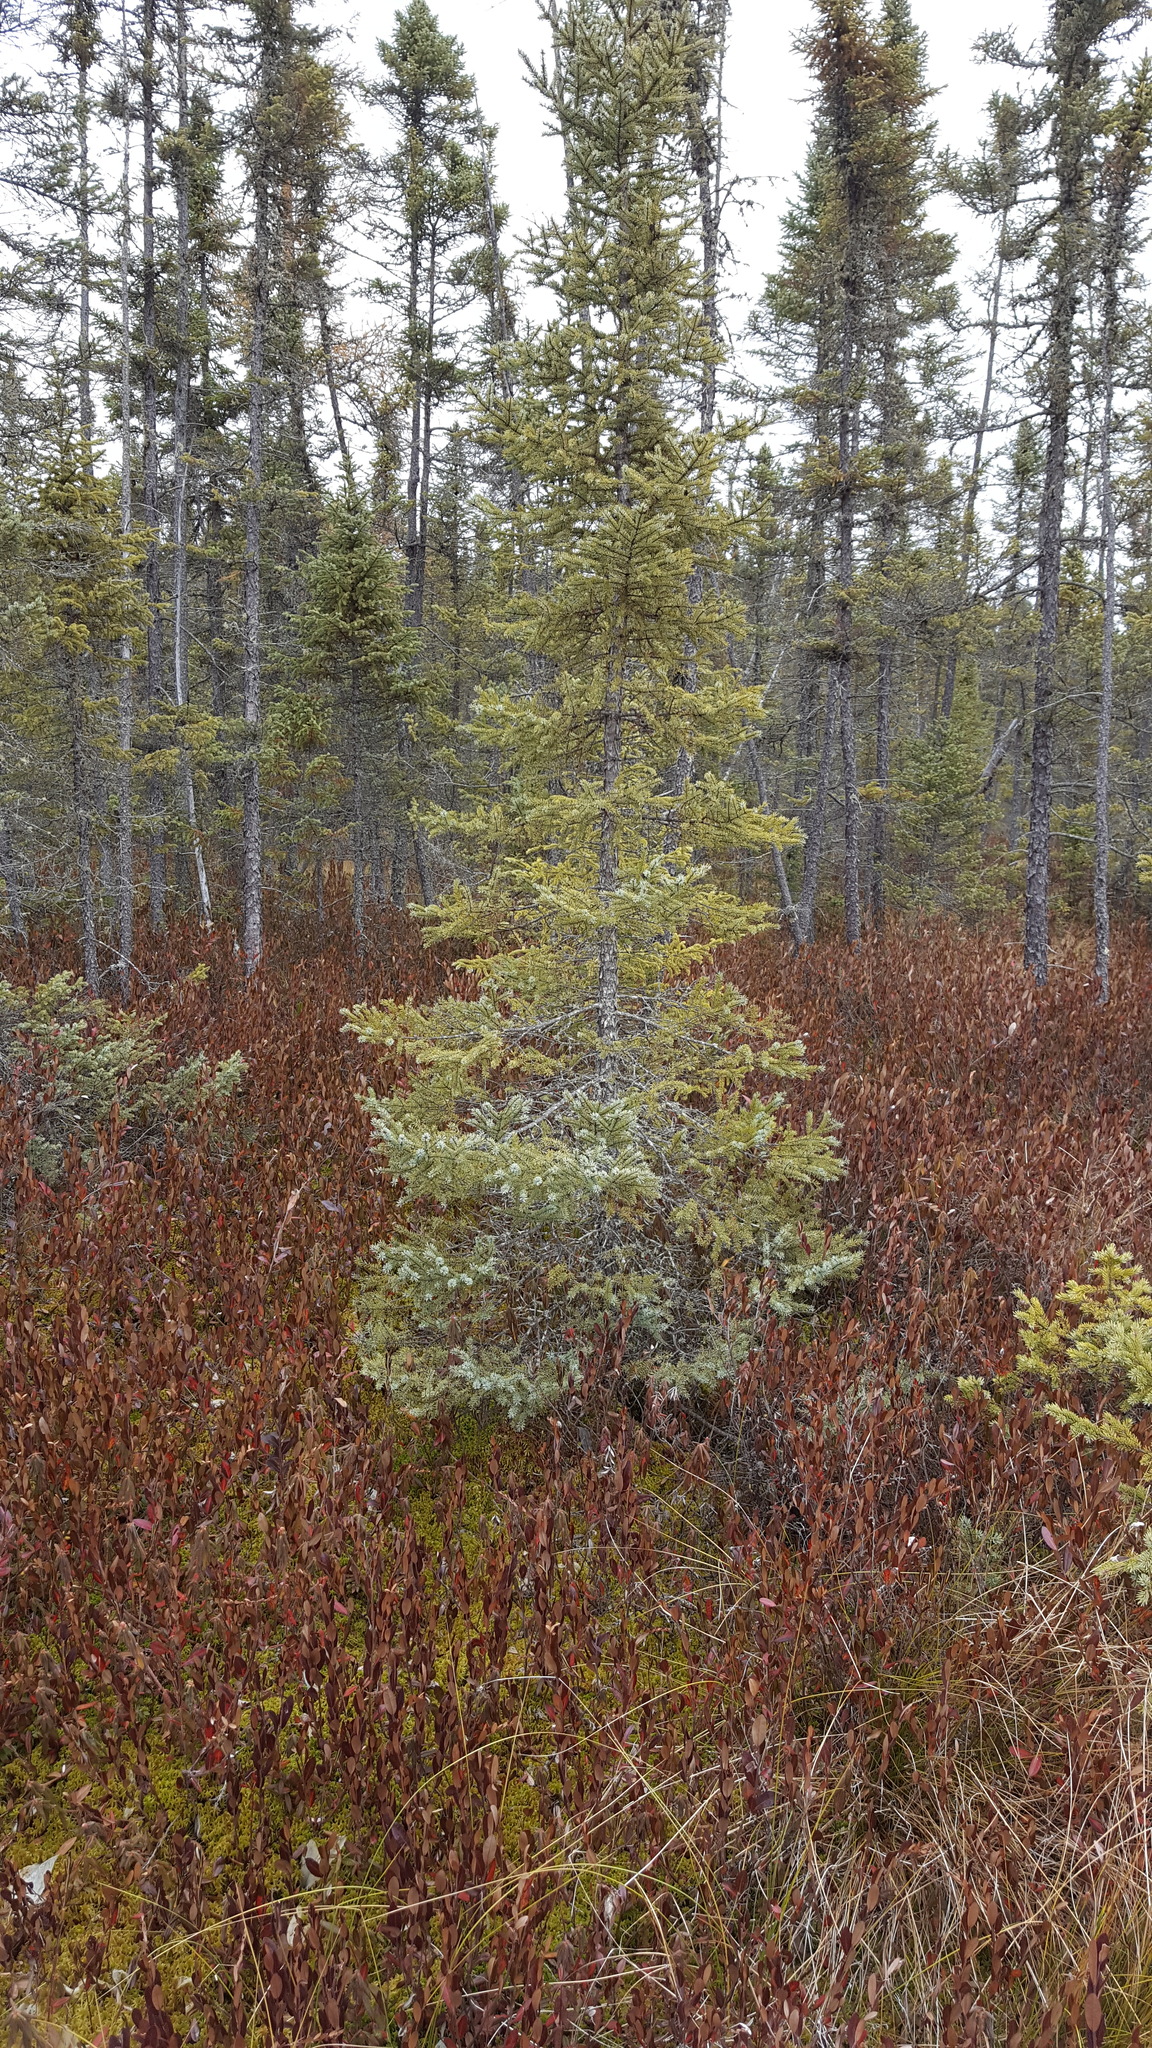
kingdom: Plantae
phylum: Tracheophyta
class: Pinopsida
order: Pinales
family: Pinaceae
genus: Picea
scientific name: Picea mariana
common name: Black spruce
